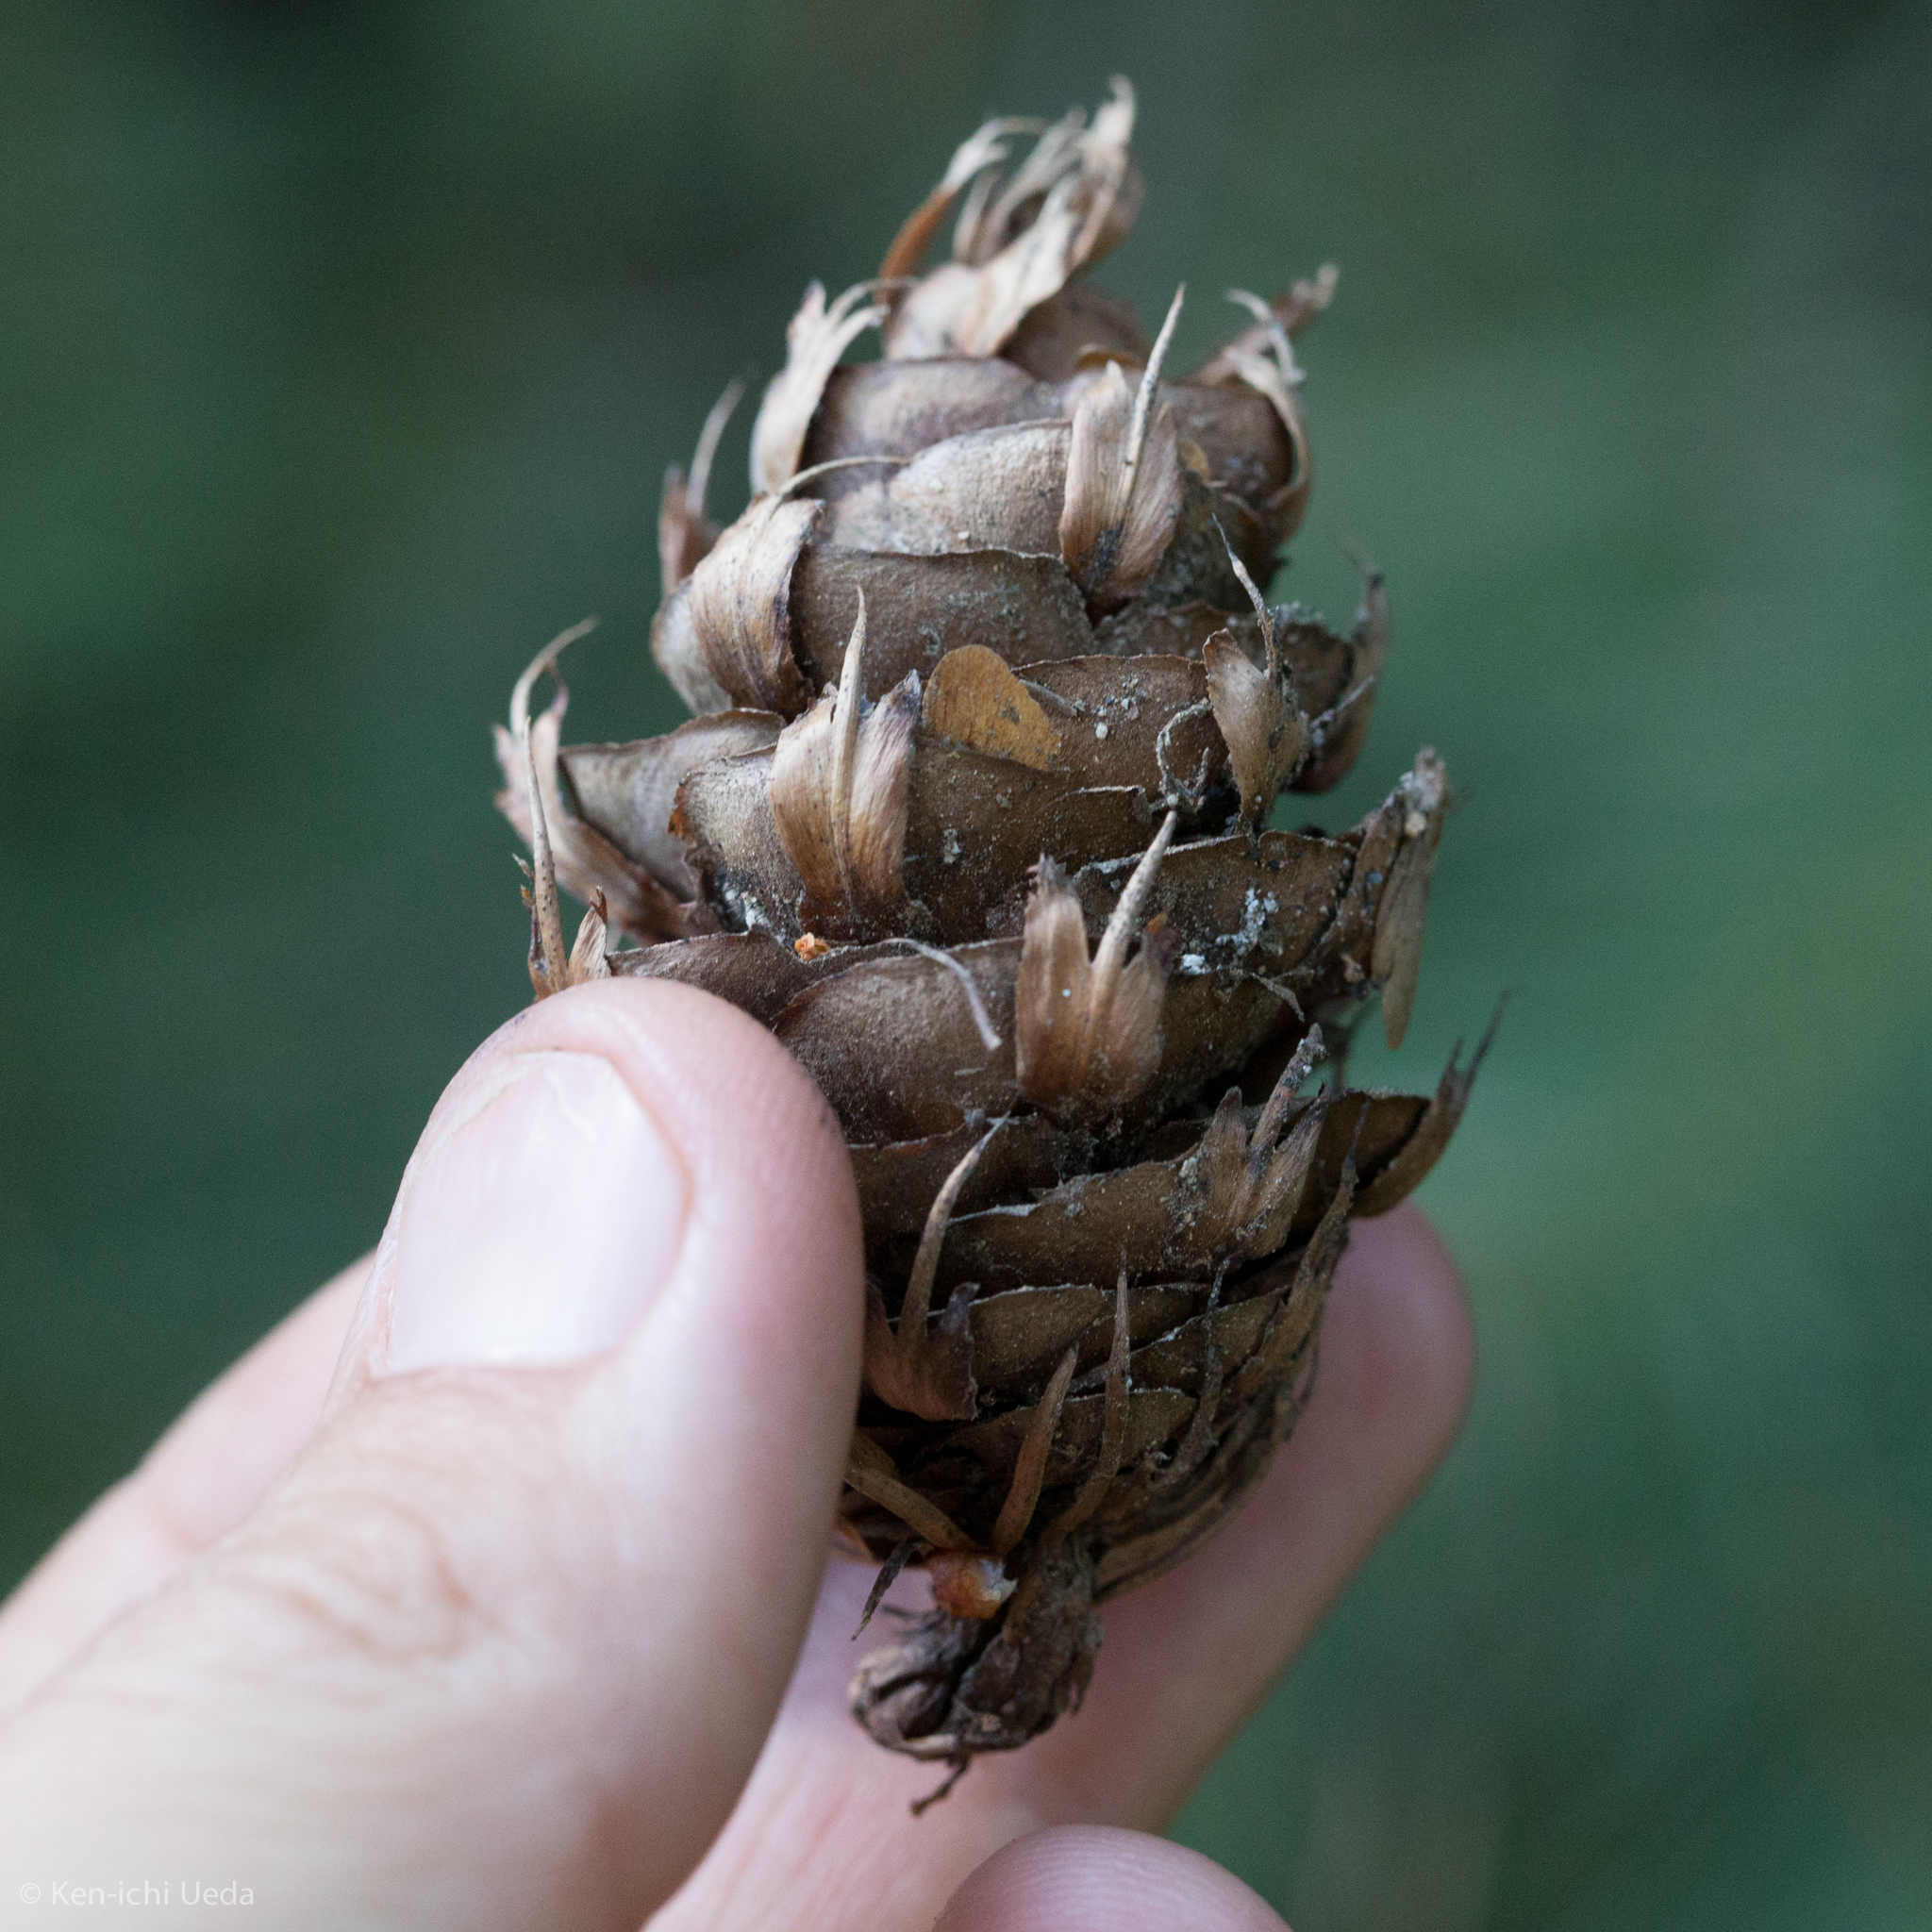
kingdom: Plantae
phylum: Tracheophyta
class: Pinopsida
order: Pinales
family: Pinaceae
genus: Pseudotsuga
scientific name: Pseudotsuga menziesii
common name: Douglas fir
